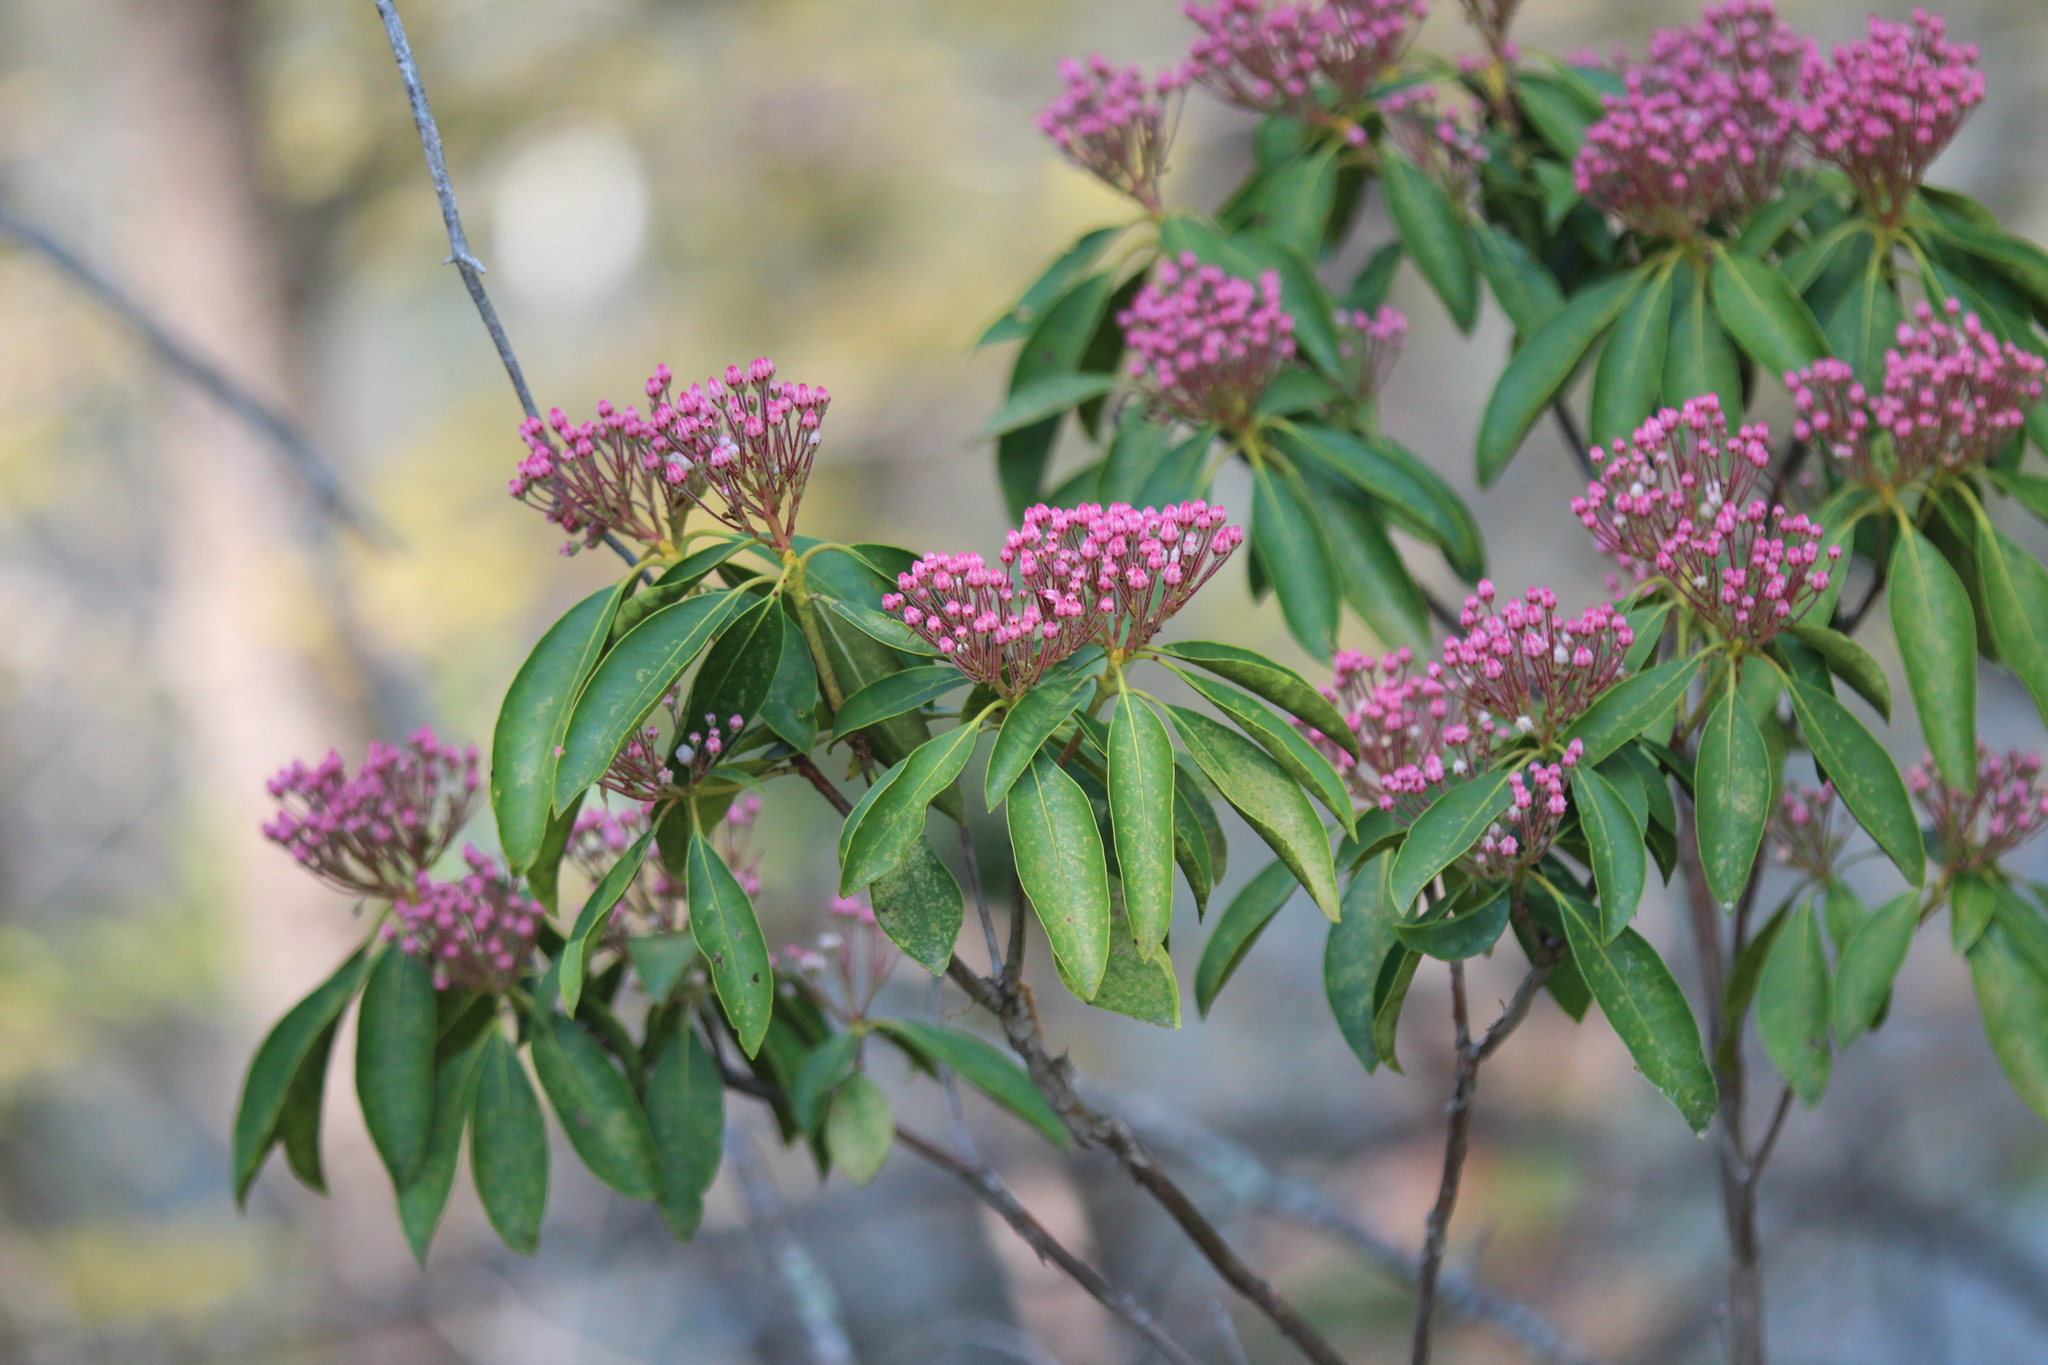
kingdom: Plantae
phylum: Tracheophyta
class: Magnoliopsida
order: Ericales
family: Ericaceae
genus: Kalmia
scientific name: Kalmia latifolia
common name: Mountain-laurel
